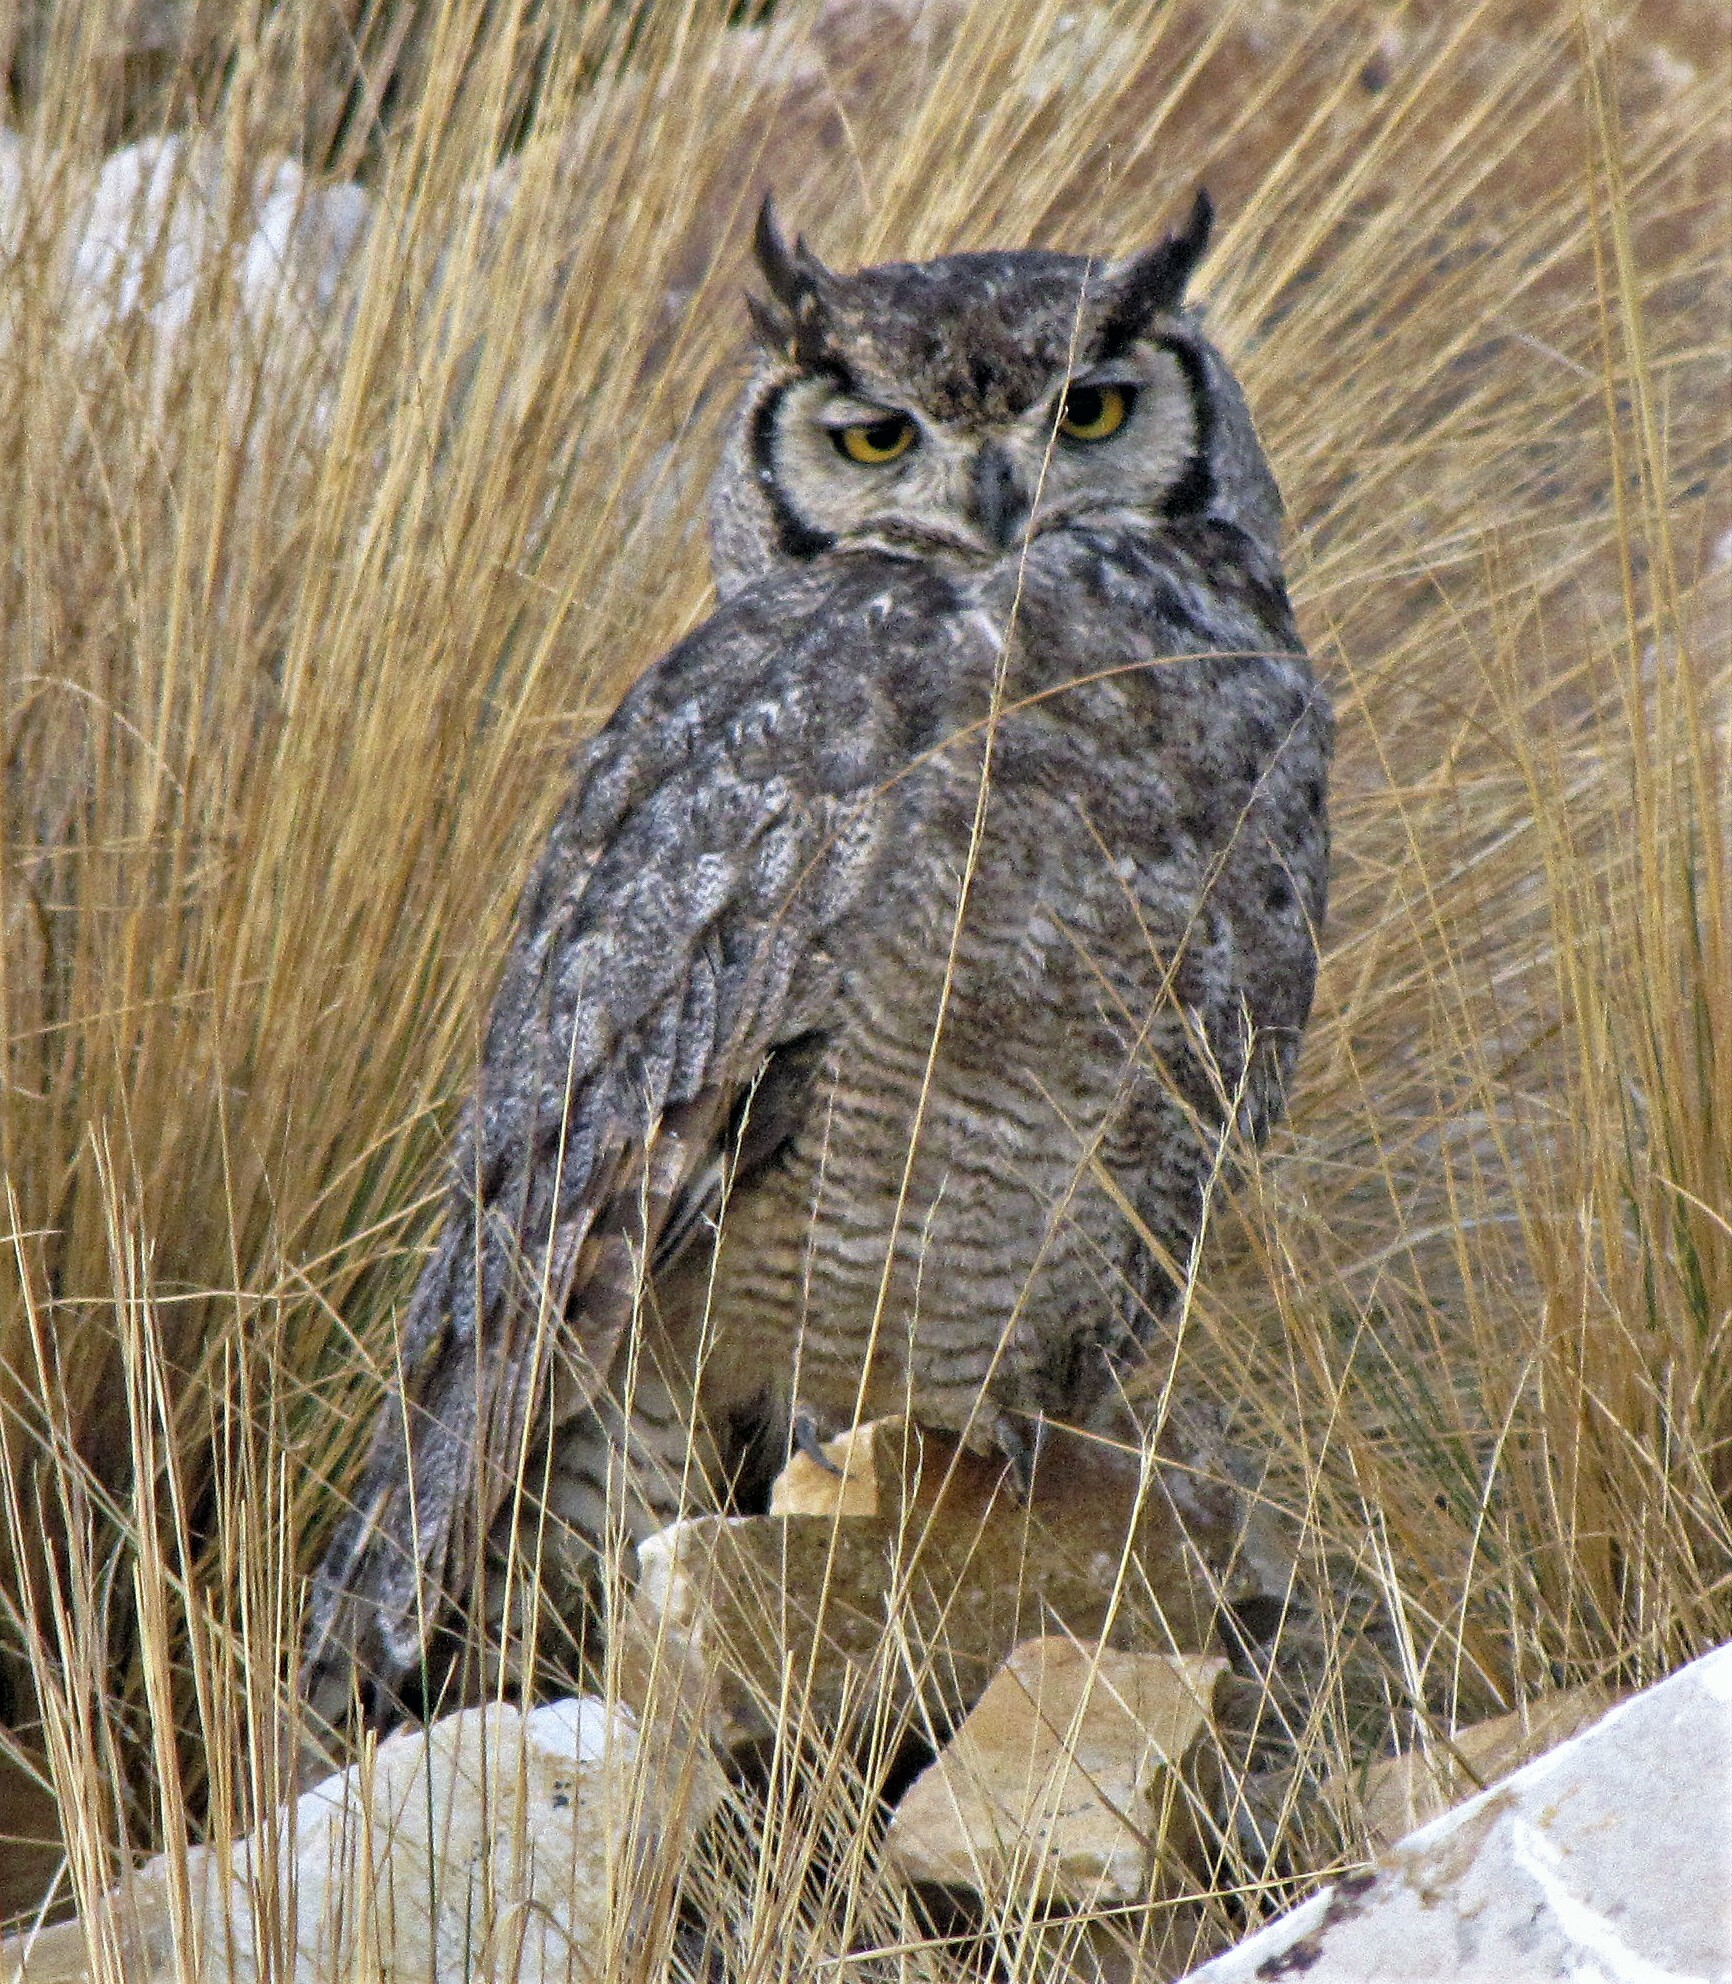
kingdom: Animalia
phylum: Chordata
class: Aves
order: Strigiformes
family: Strigidae
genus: Bubo
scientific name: Bubo magellanicus
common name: Lesser horned owl
